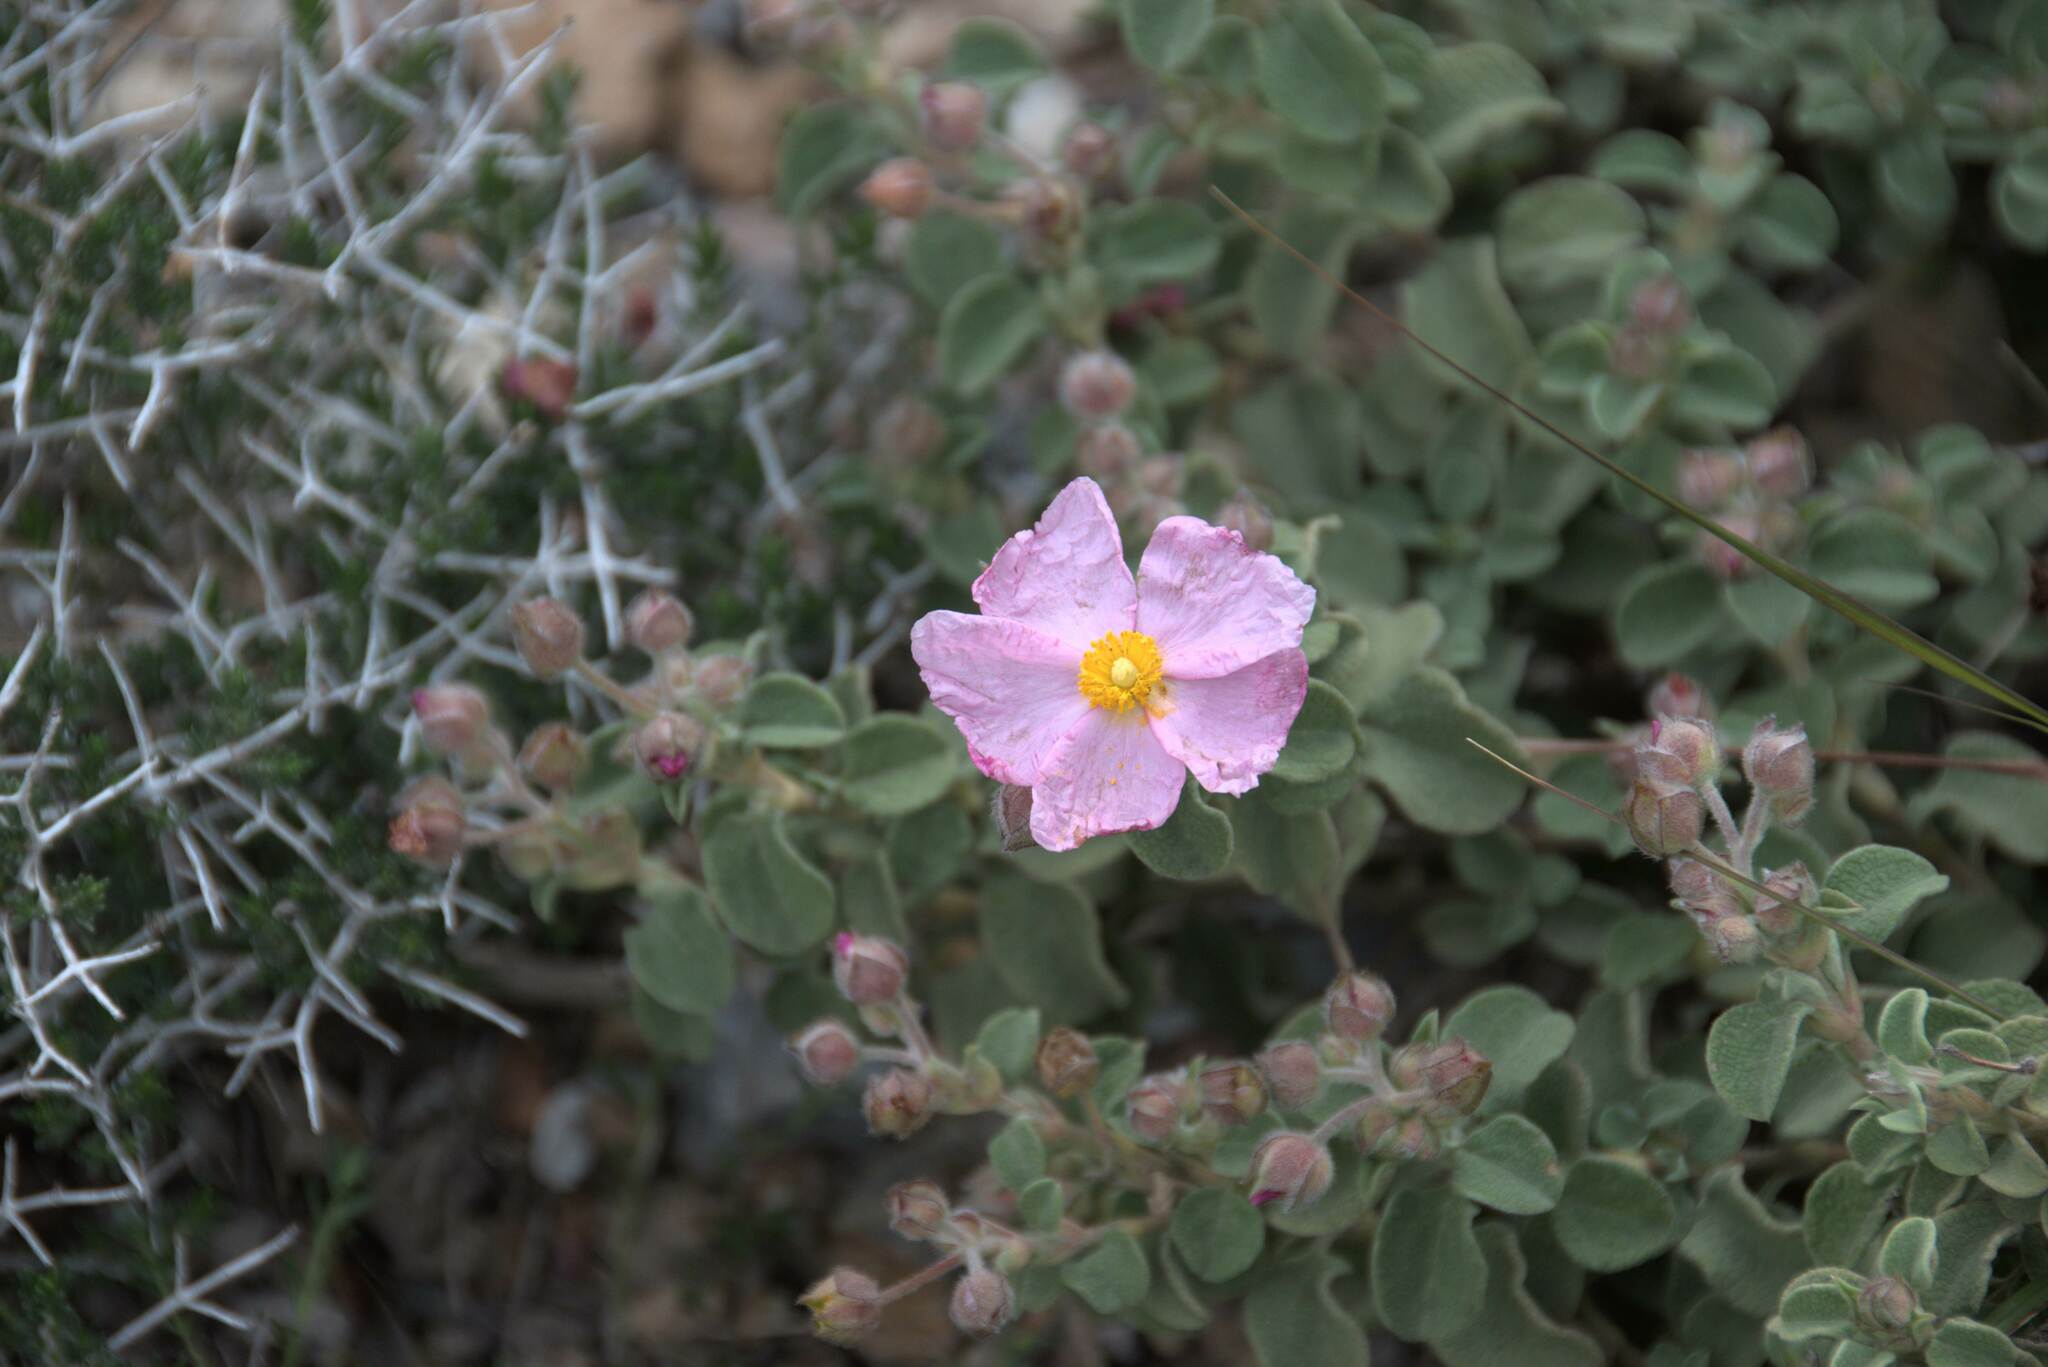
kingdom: Plantae
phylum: Tracheophyta
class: Magnoliopsida
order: Malvales
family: Cistaceae
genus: Cistus
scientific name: Cistus parviflorus
